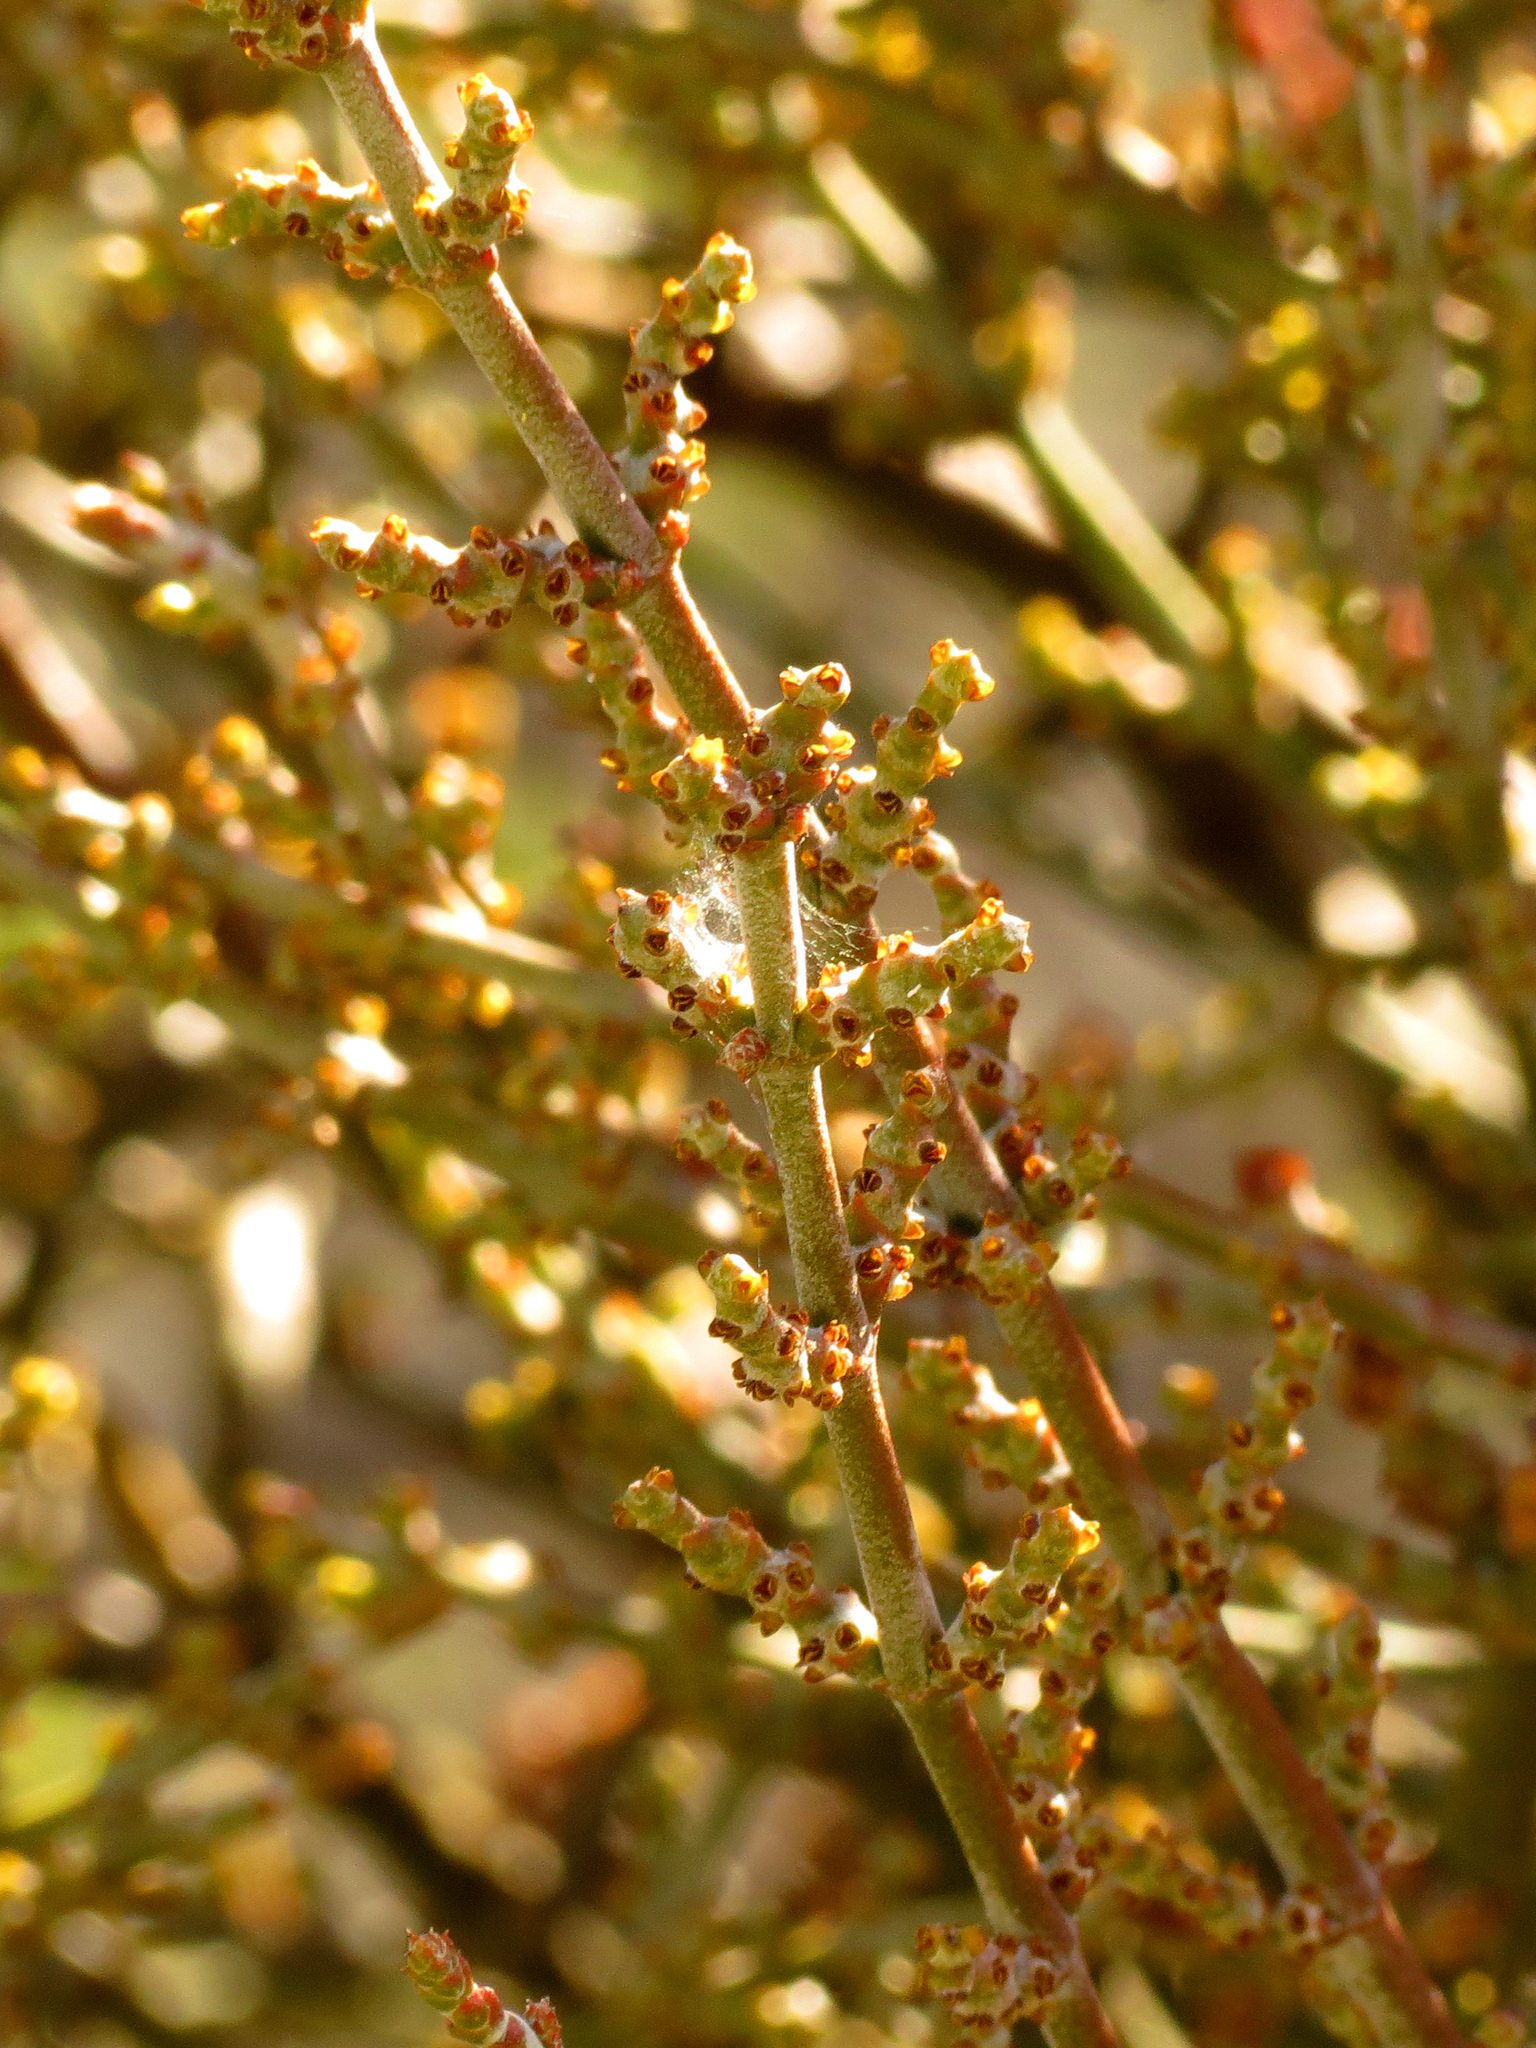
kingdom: Plantae
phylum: Tracheophyta
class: Magnoliopsida
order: Santalales
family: Viscaceae
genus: Phoradendron
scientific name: Phoradendron californicum
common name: Acacia mistletoe
